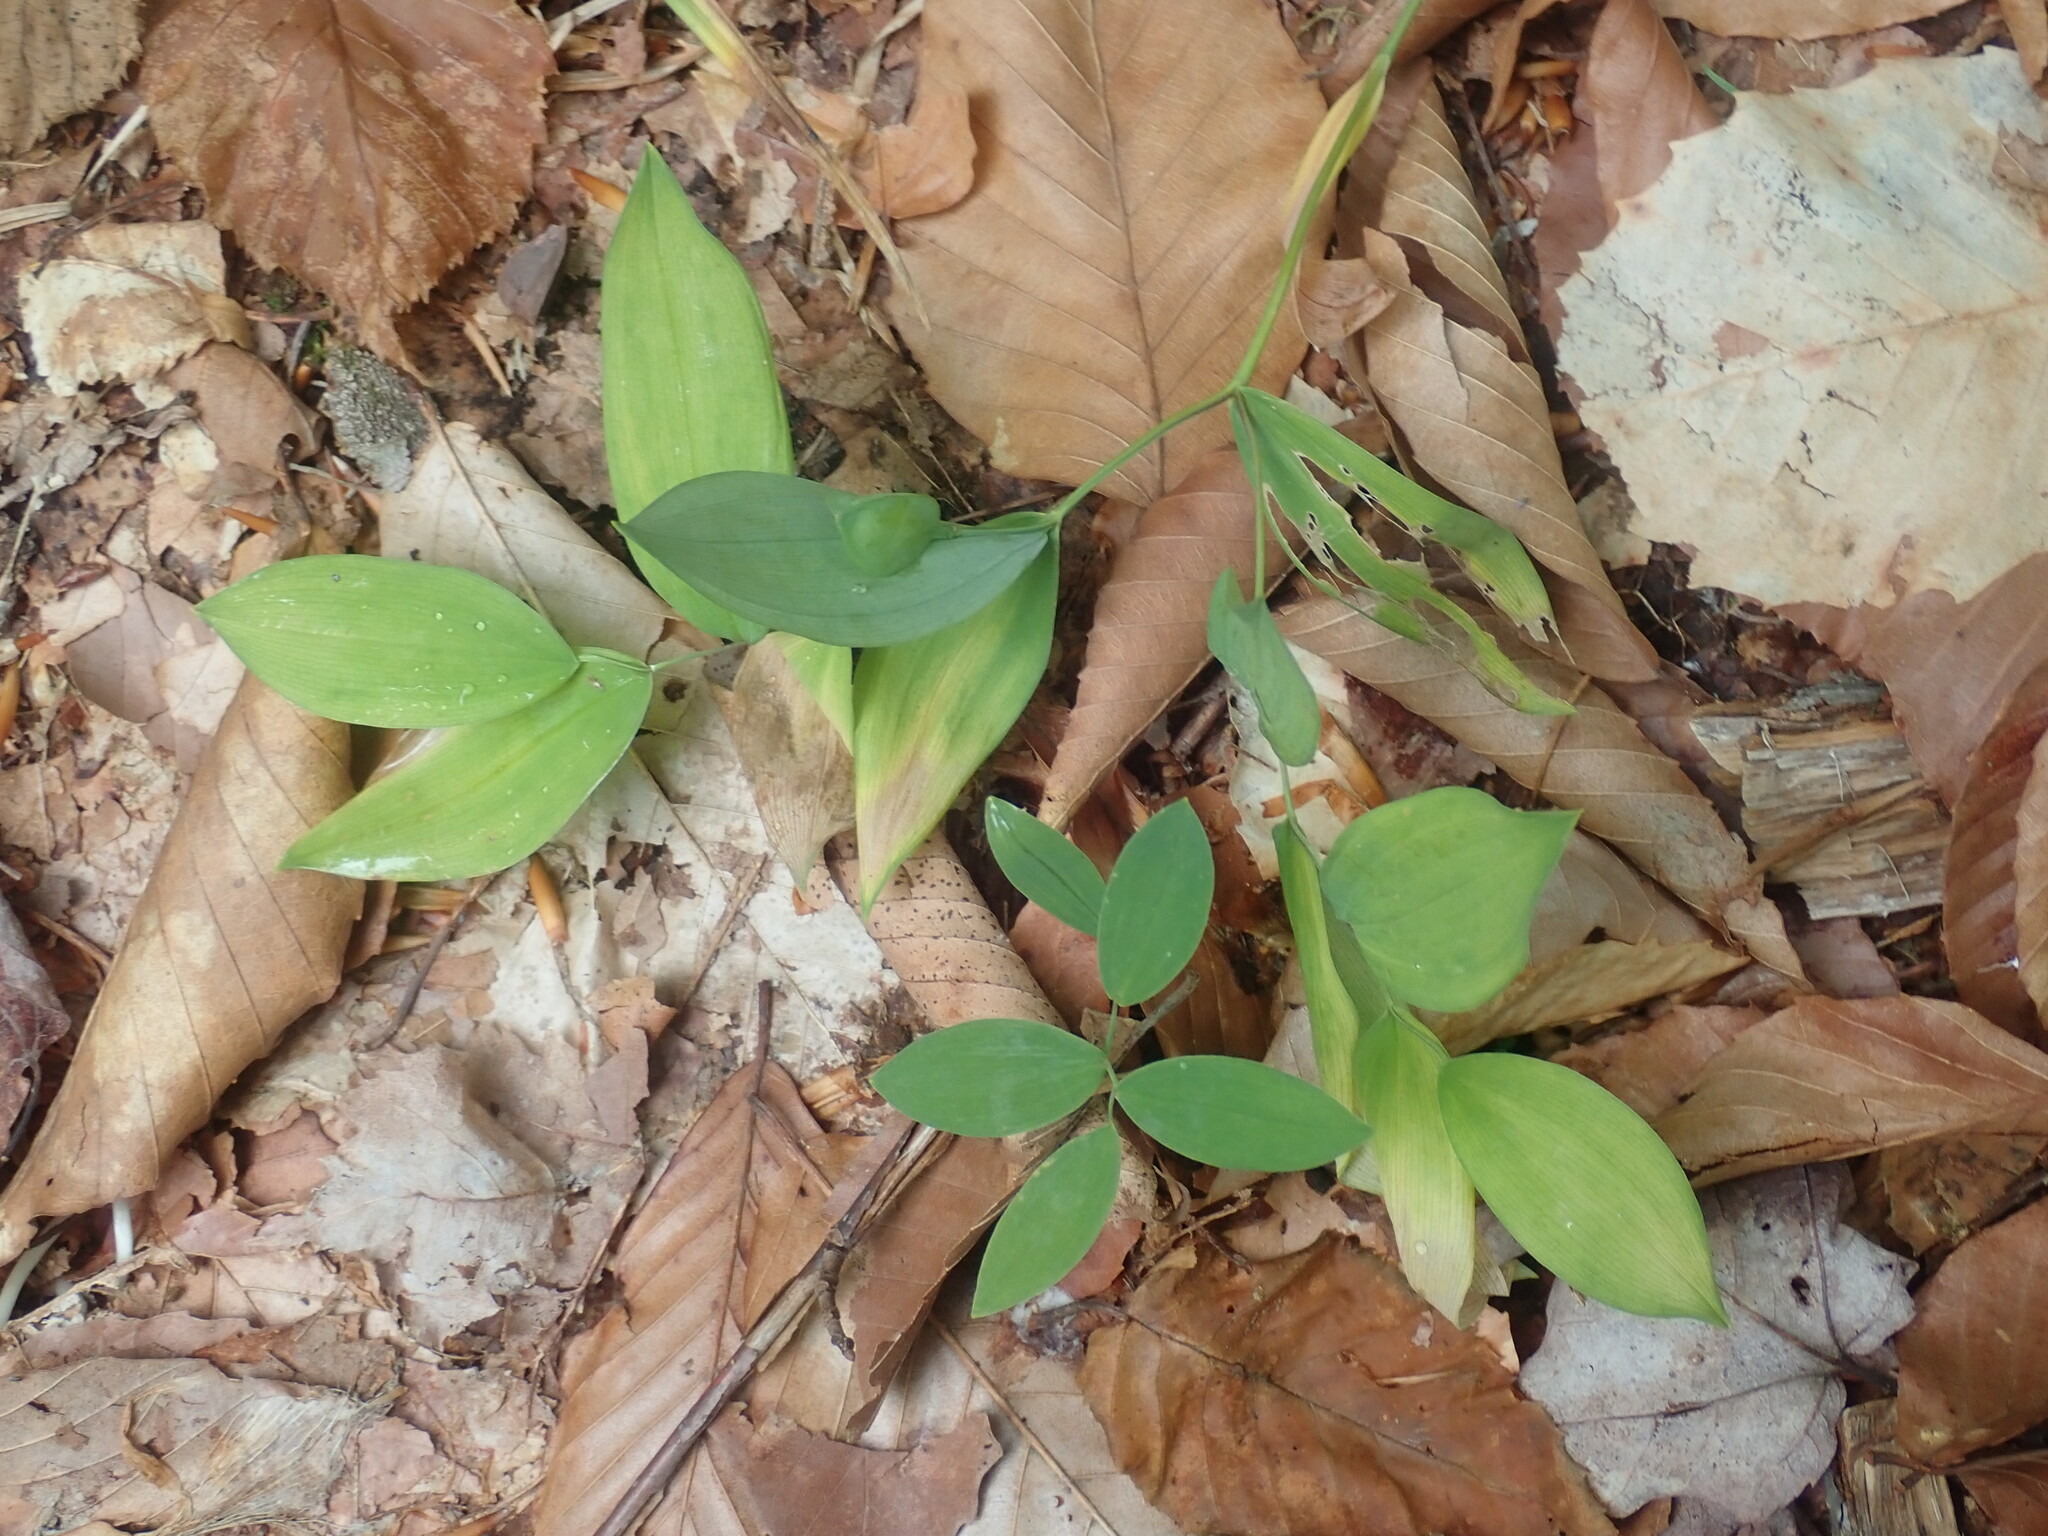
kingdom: Plantae
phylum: Tracheophyta
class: Liliopsida
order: Liliales
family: Colchicaceae
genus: Uvularia
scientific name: Uvularia sessilifolia
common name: Straw-lily
